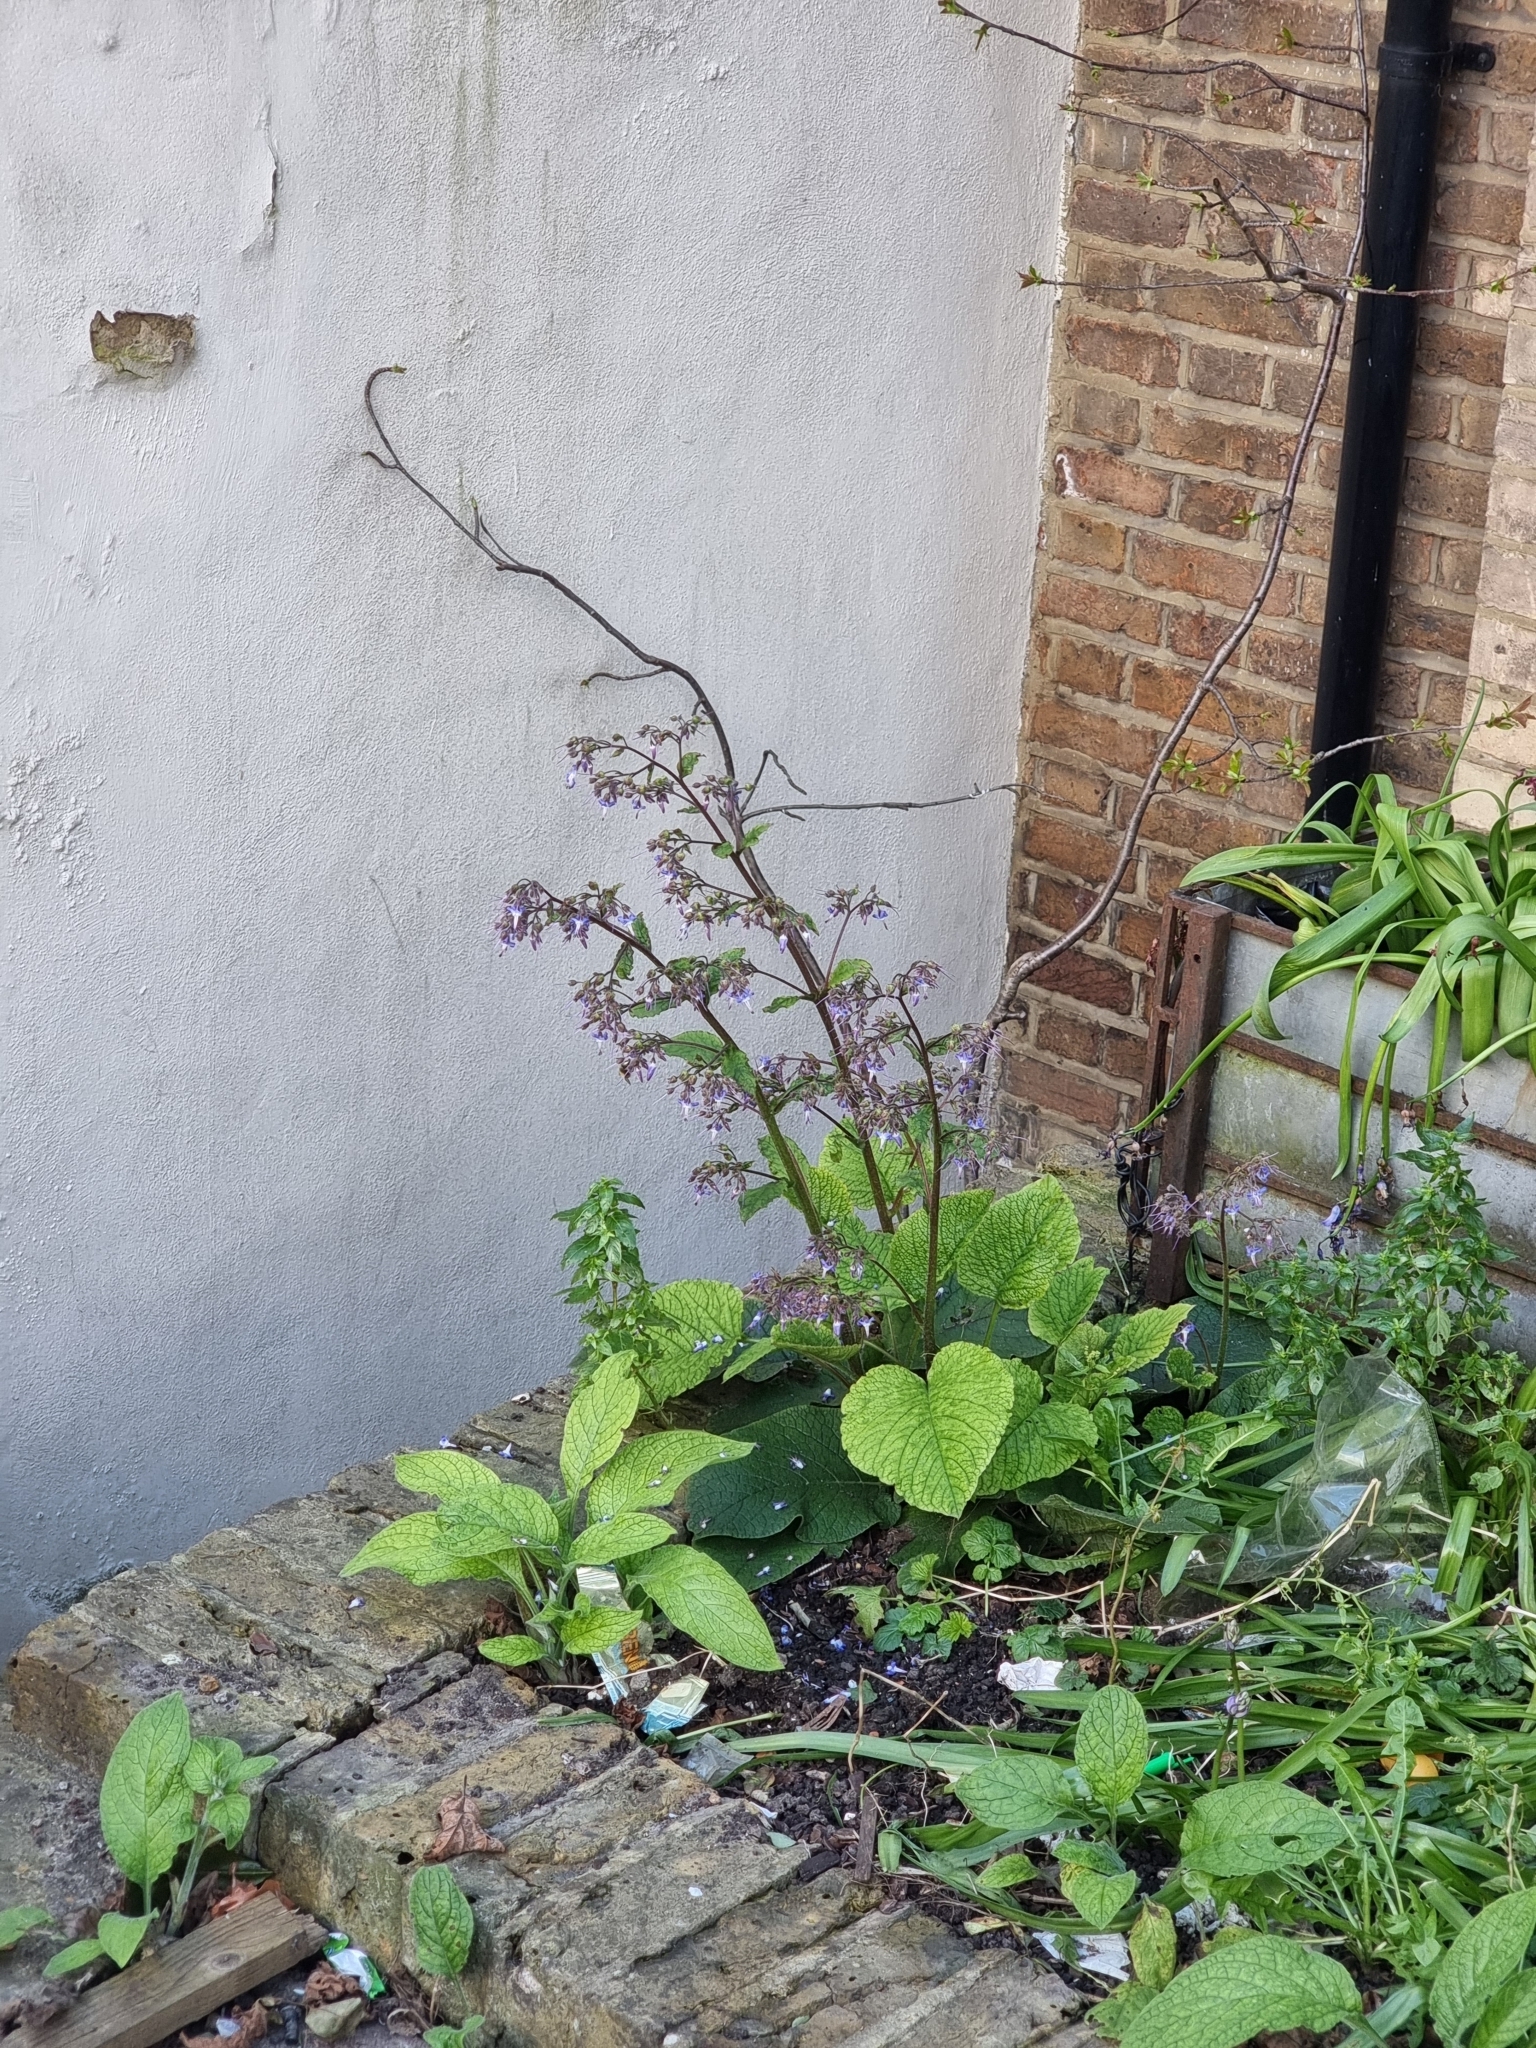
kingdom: Plantae
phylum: Tracheophyta
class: Magnoliopsida
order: Boraginales
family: Boraginaceae
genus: Trachystemon
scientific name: Trachystemon orientale
